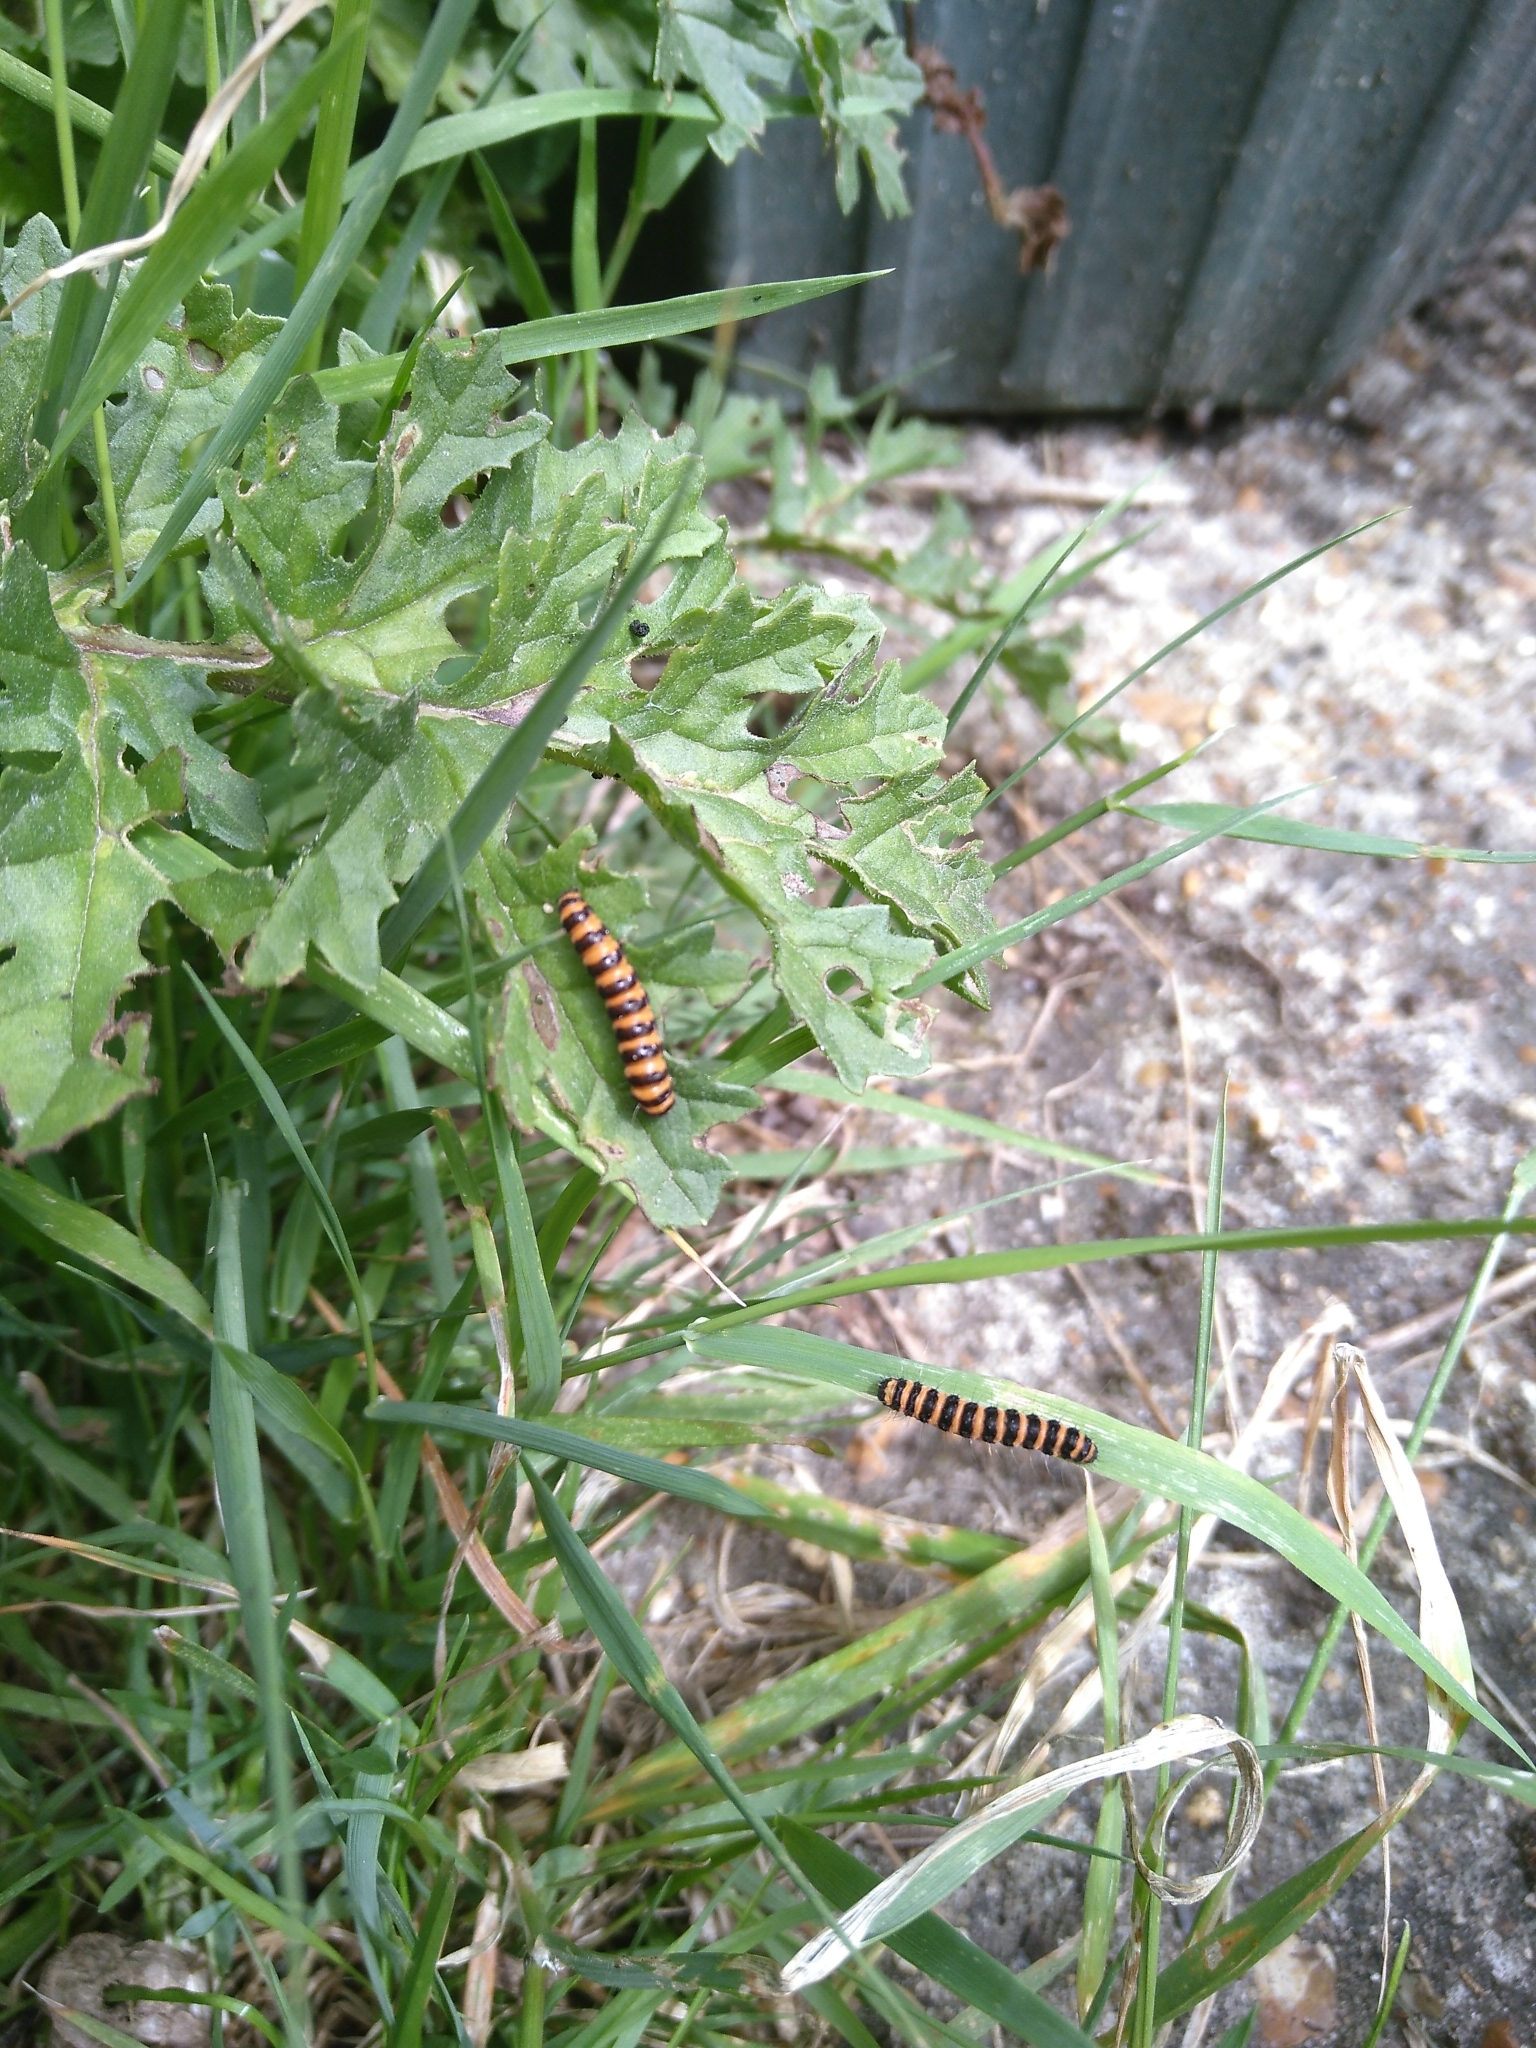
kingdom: Animalia
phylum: Arthropoda
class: Insecta
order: Lepidoptera
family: Erebidae
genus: Tyria
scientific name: Tyria jacobaeae
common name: Cinnabar
